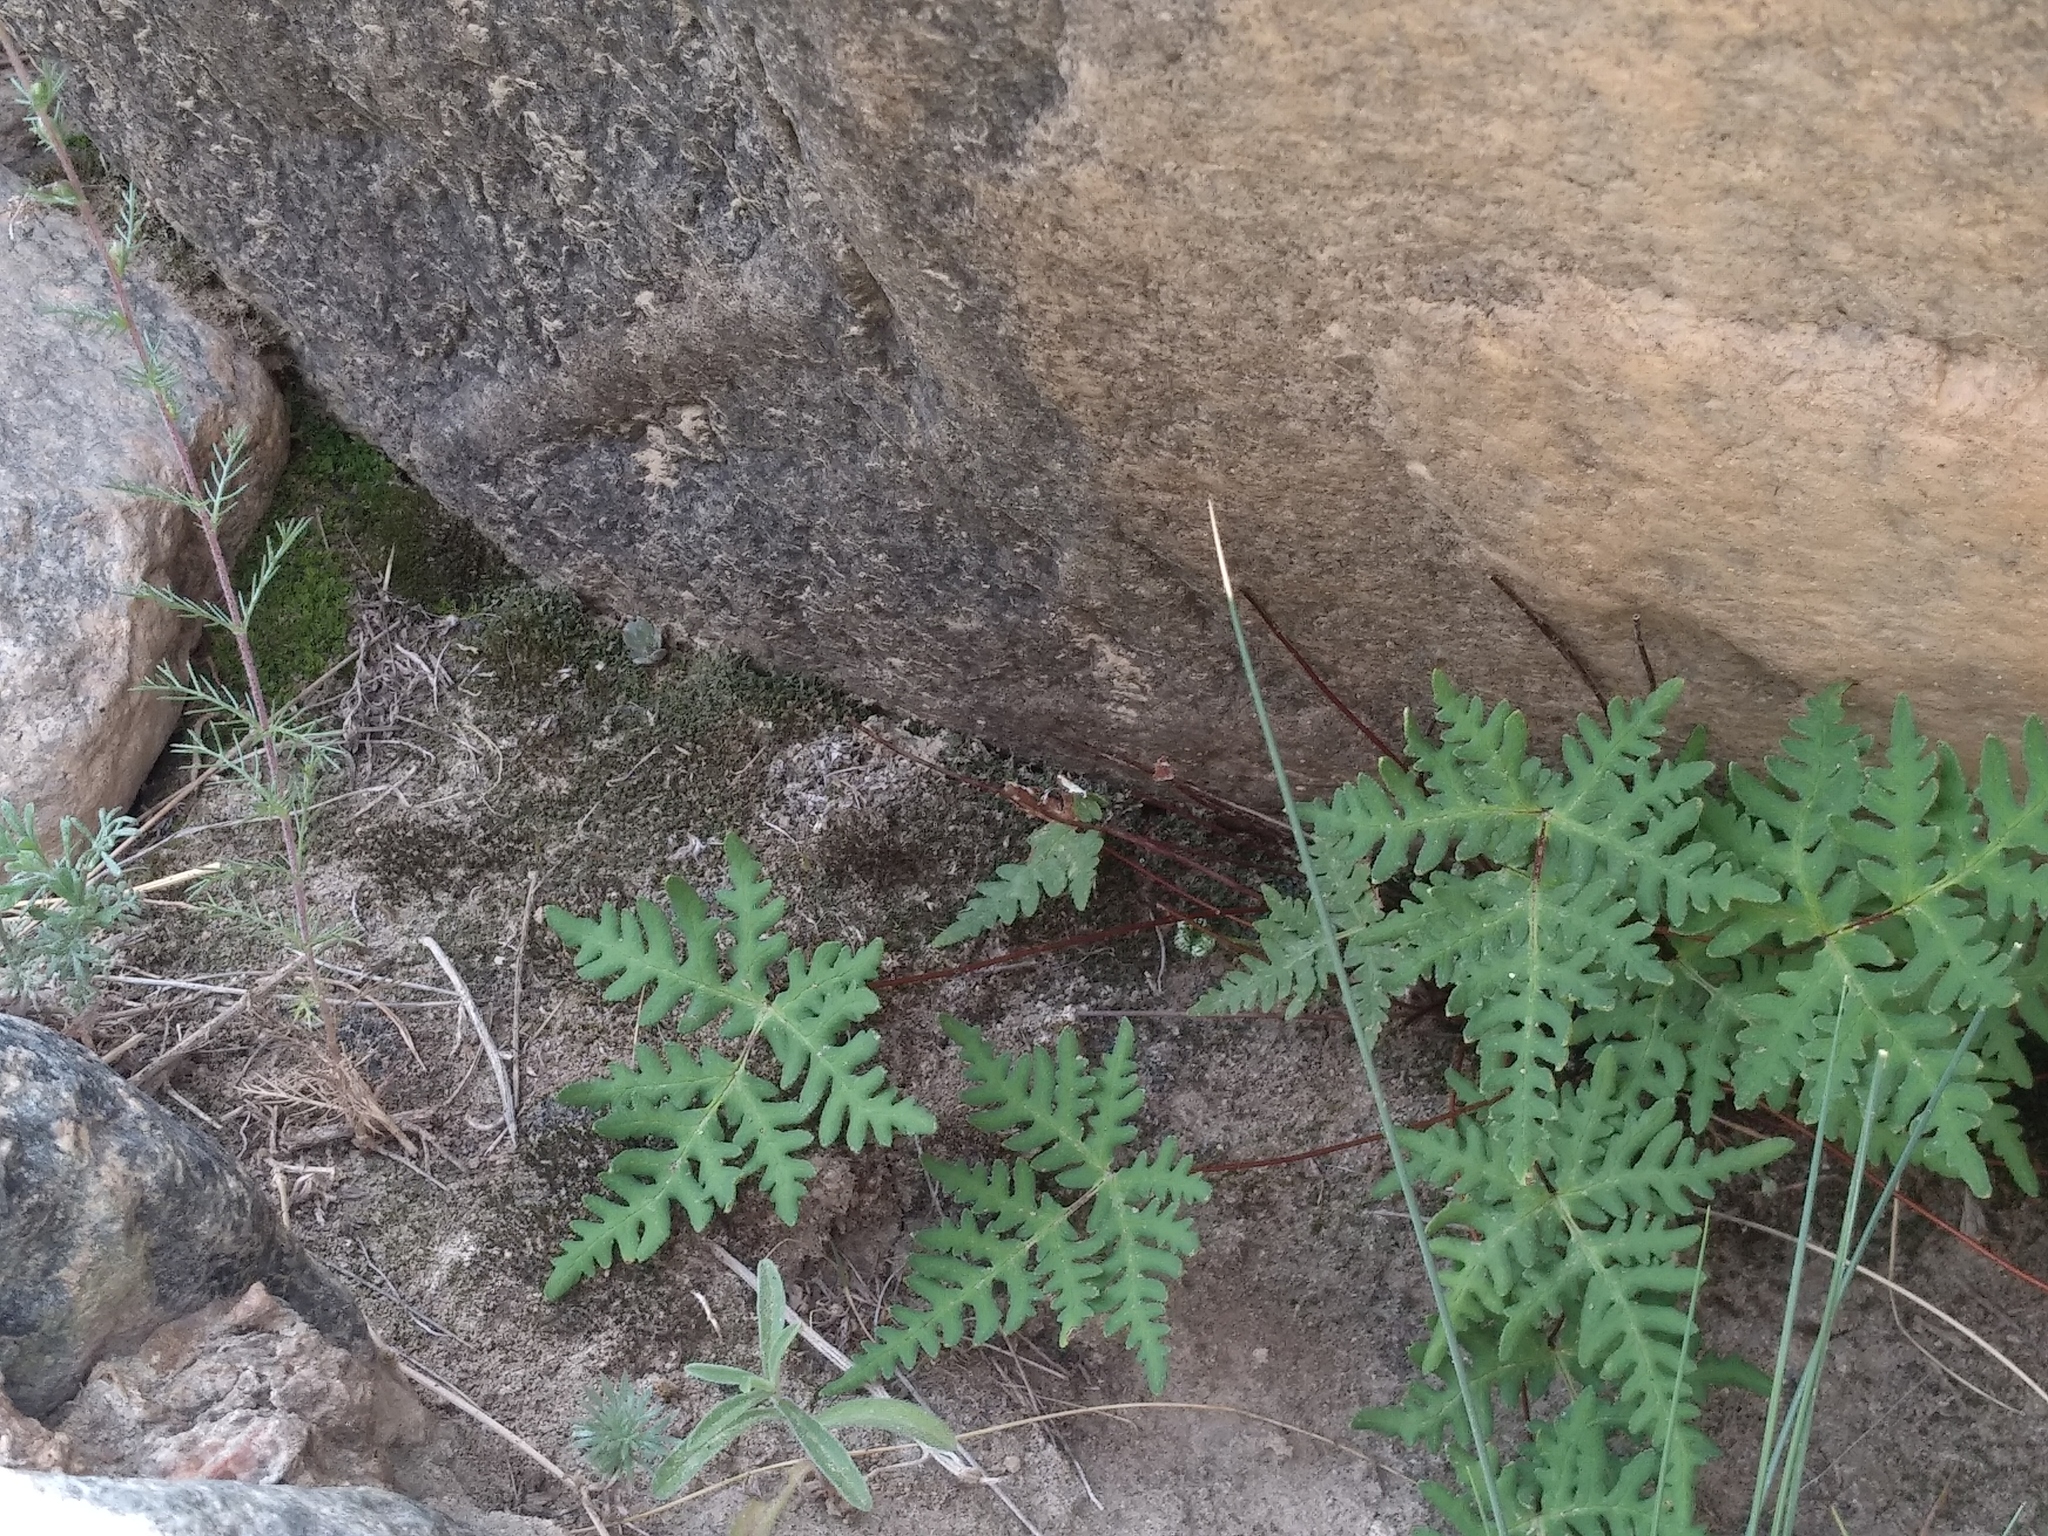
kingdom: Plantae
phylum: Tracheophyta
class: Polypodiopsida
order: Polypodiales
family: Pteridaceae
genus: Aleuritopteris
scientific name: Aleuritopteris argentea
